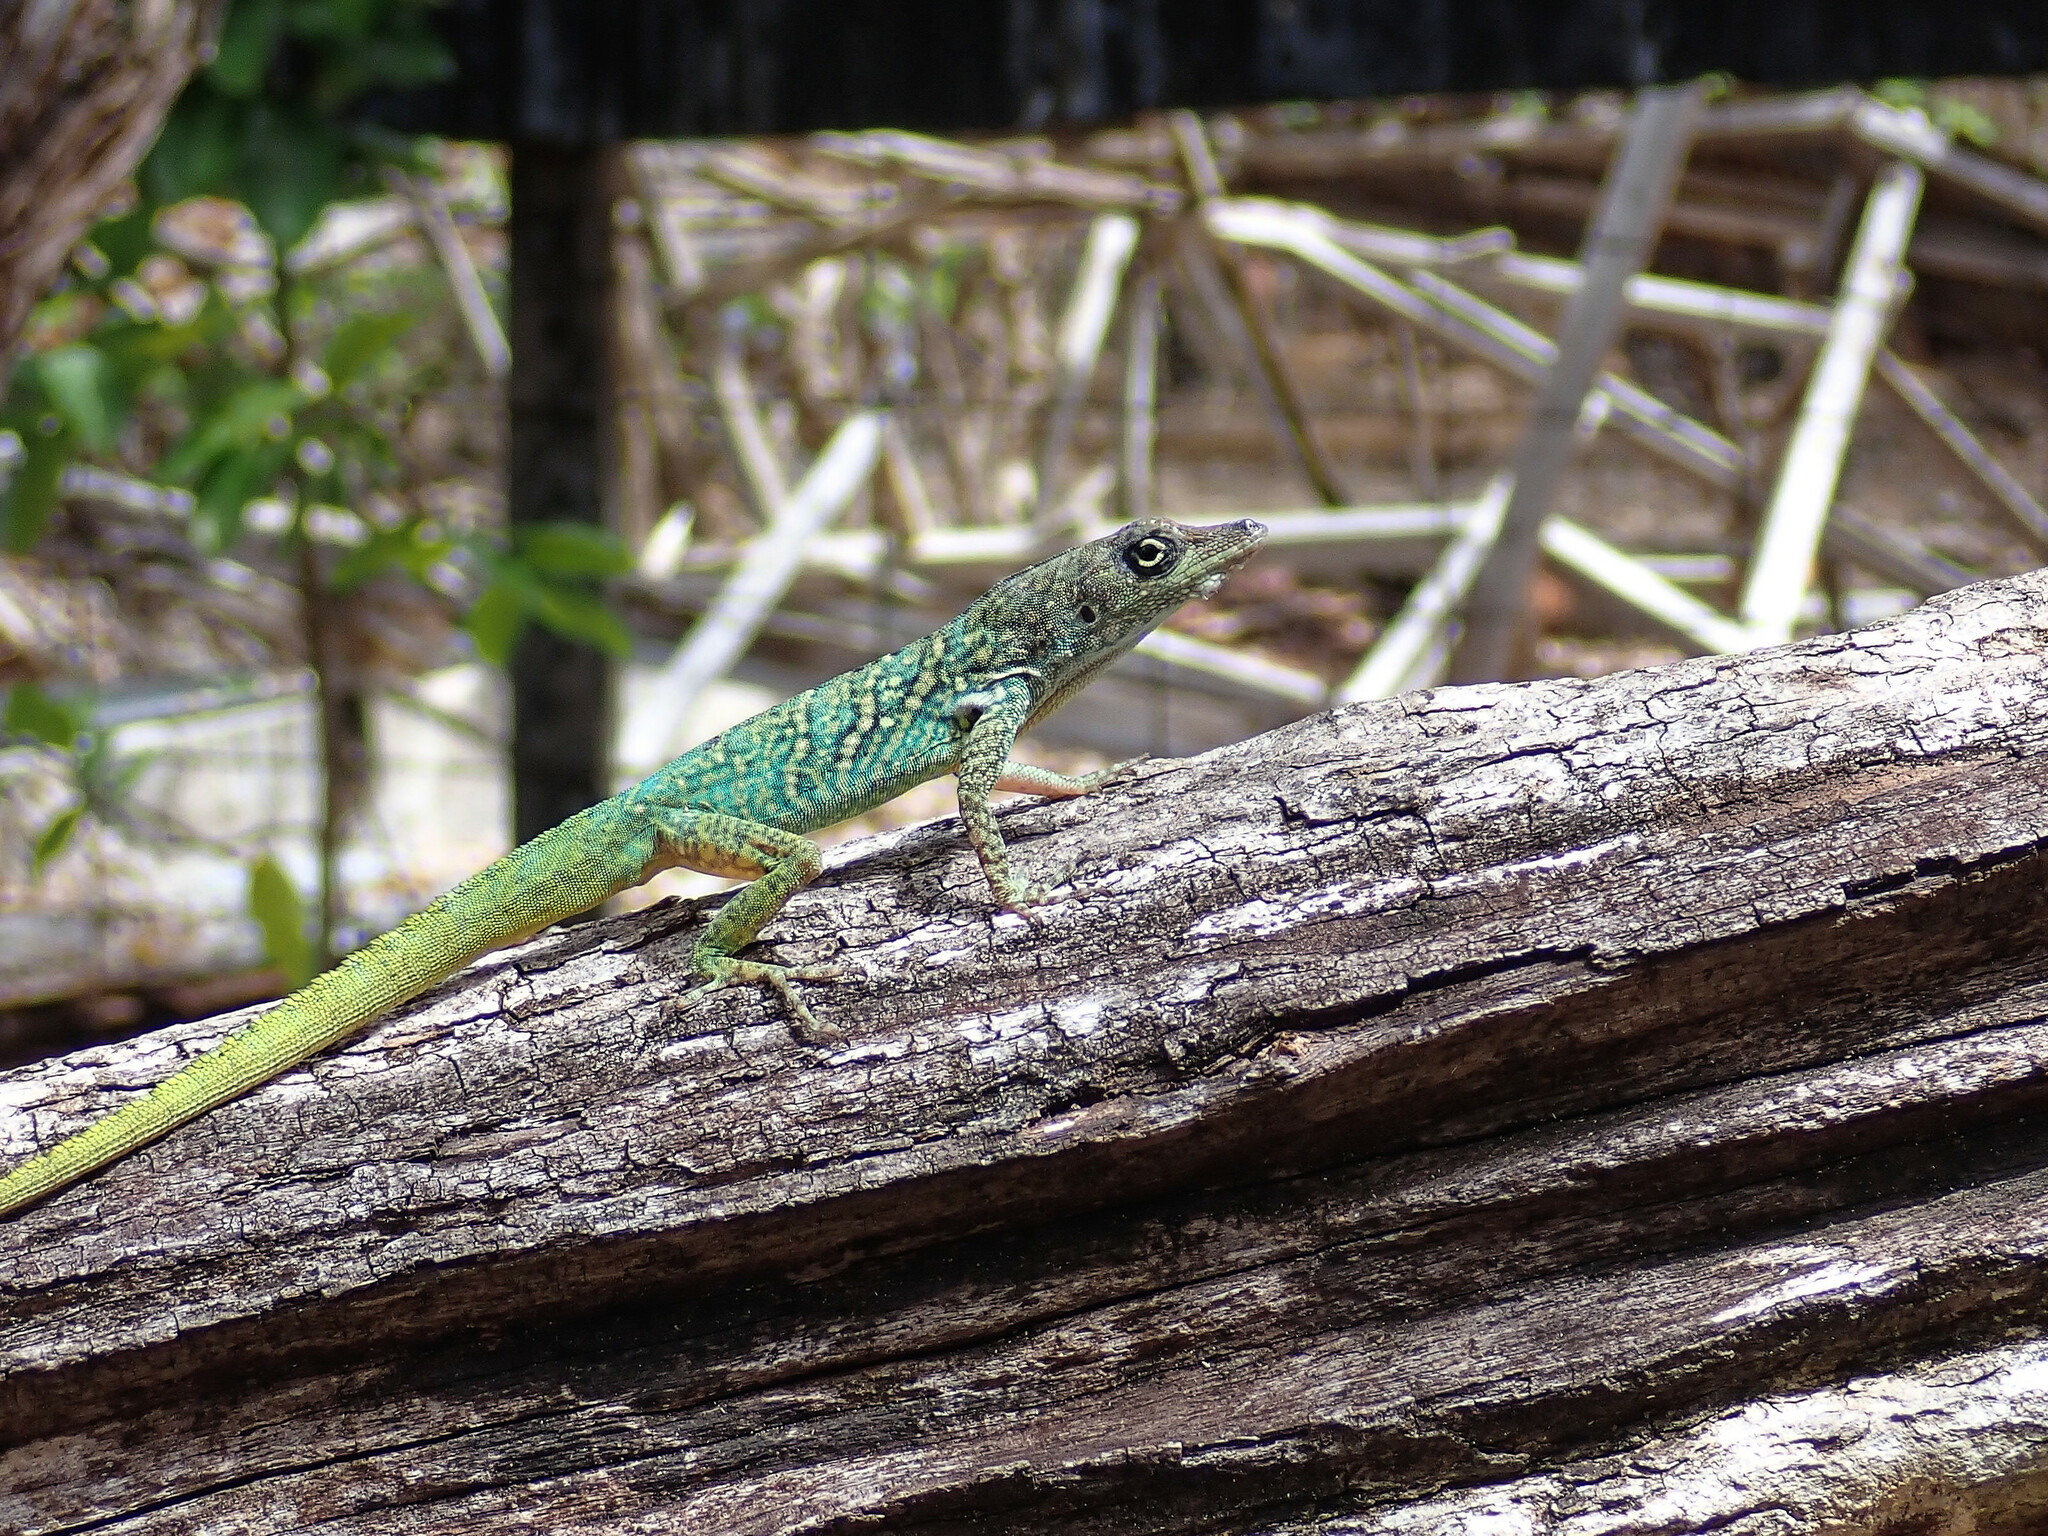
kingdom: Animalia
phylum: Chordata
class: Squamata
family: Dactyloidae
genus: Anolis
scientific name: Anolis roquet
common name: Martinique anole
